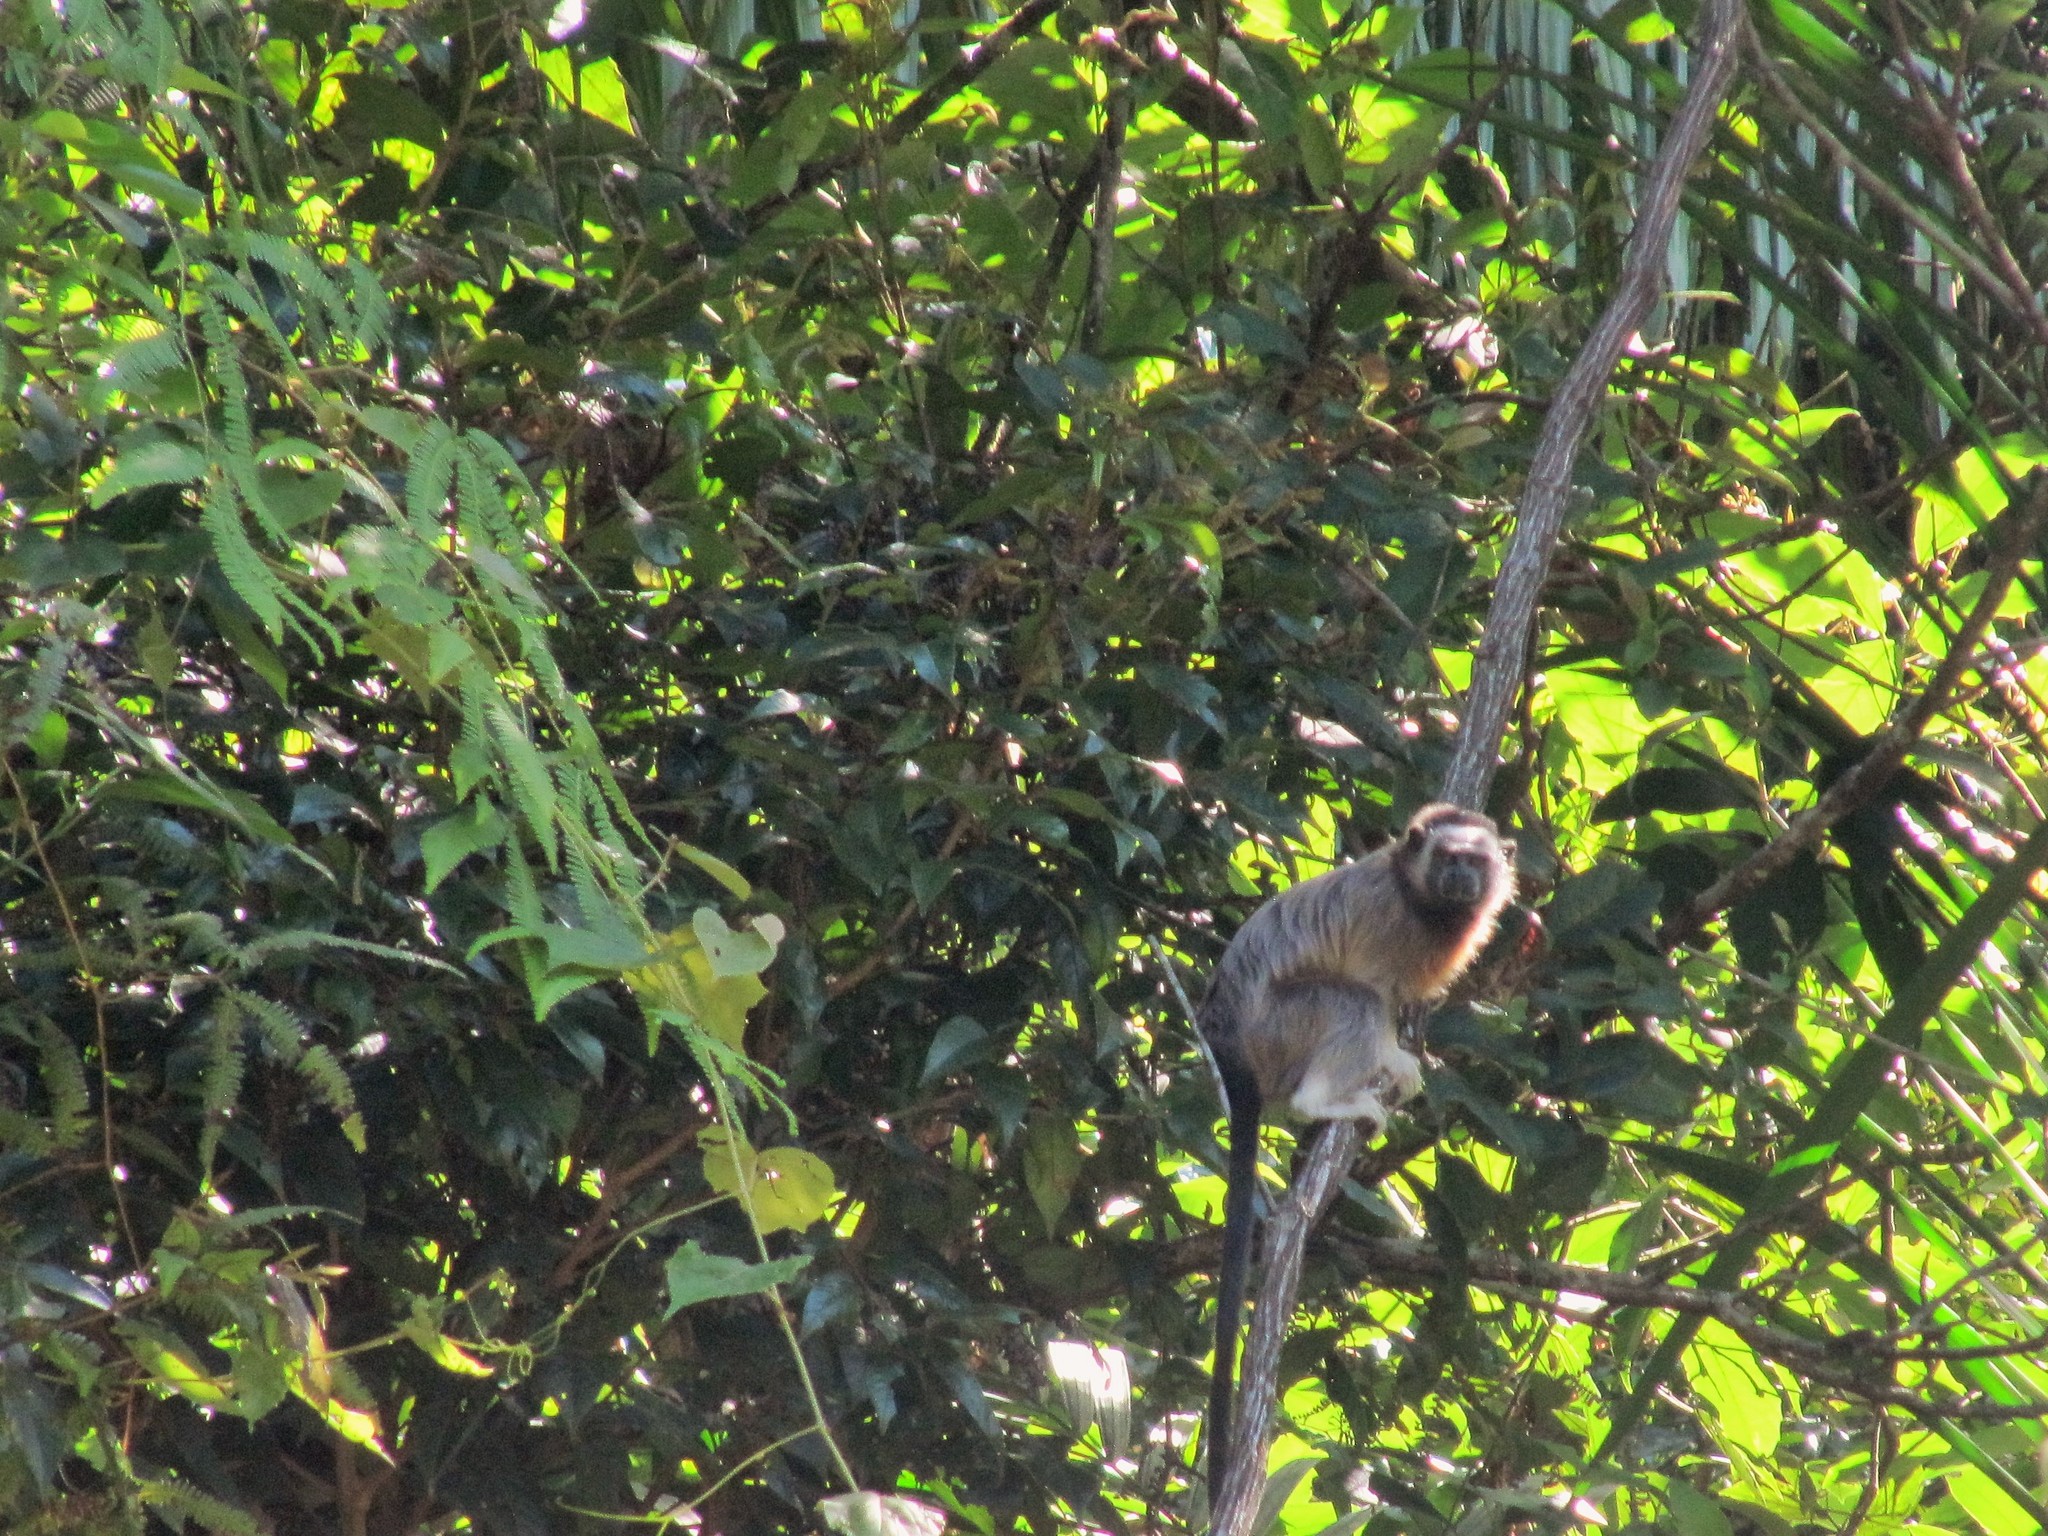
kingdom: Animalia
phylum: Chordata
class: Mammalia
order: Primates
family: Callitrichidae
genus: Saguinus
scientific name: Saguinus leucopus
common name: White-footed tamarin
